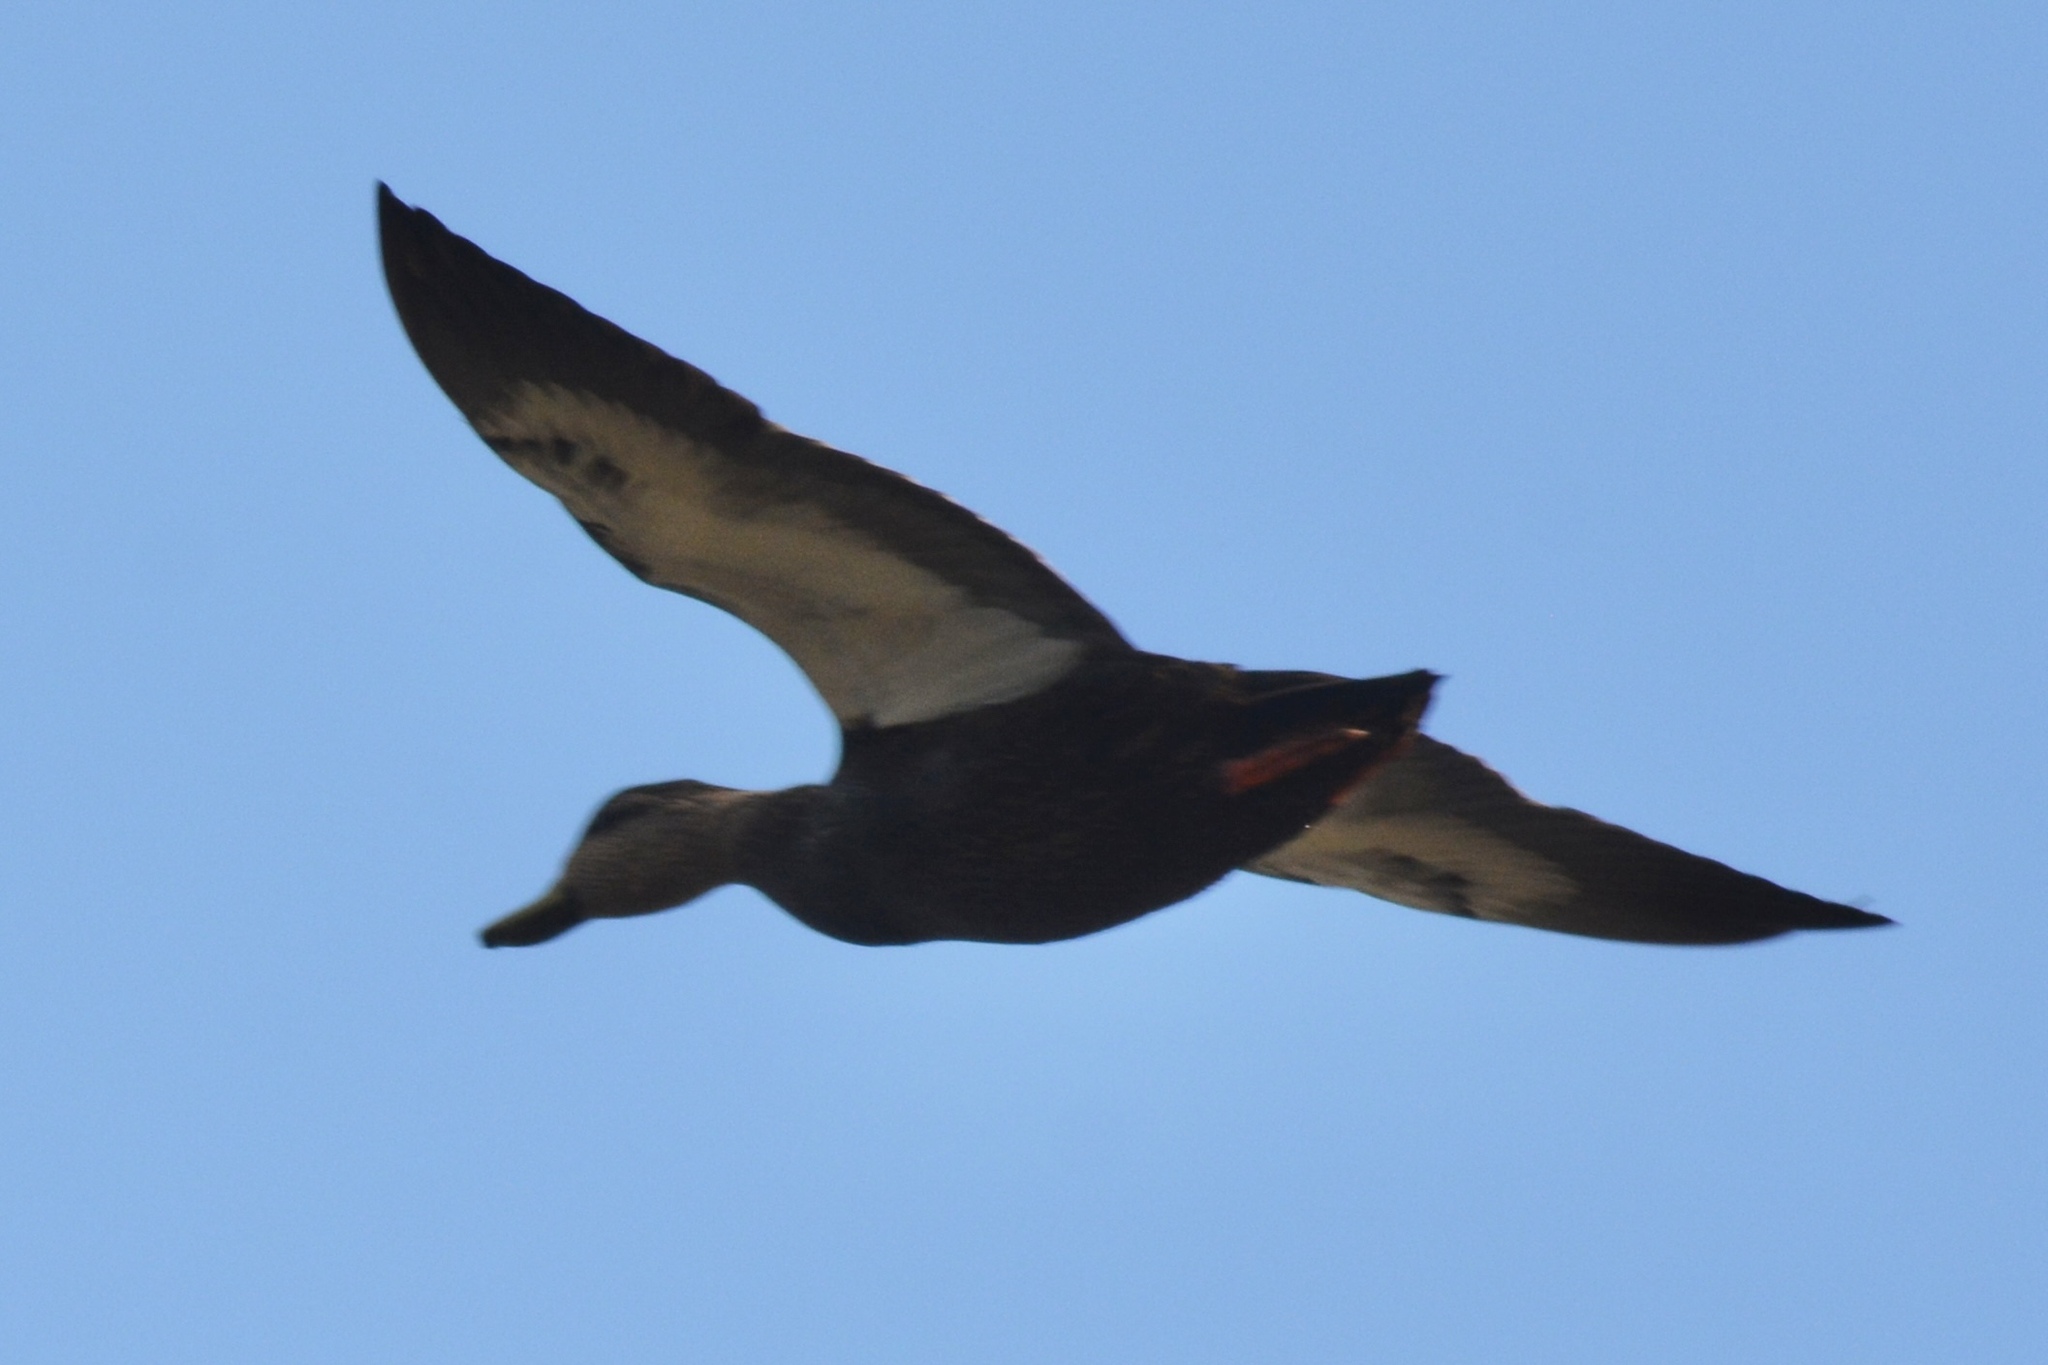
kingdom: Animalia
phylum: Chordata
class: Aves
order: Anseriformes
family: Anatidae
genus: Anas
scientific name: Anas rubripes
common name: American black duck
